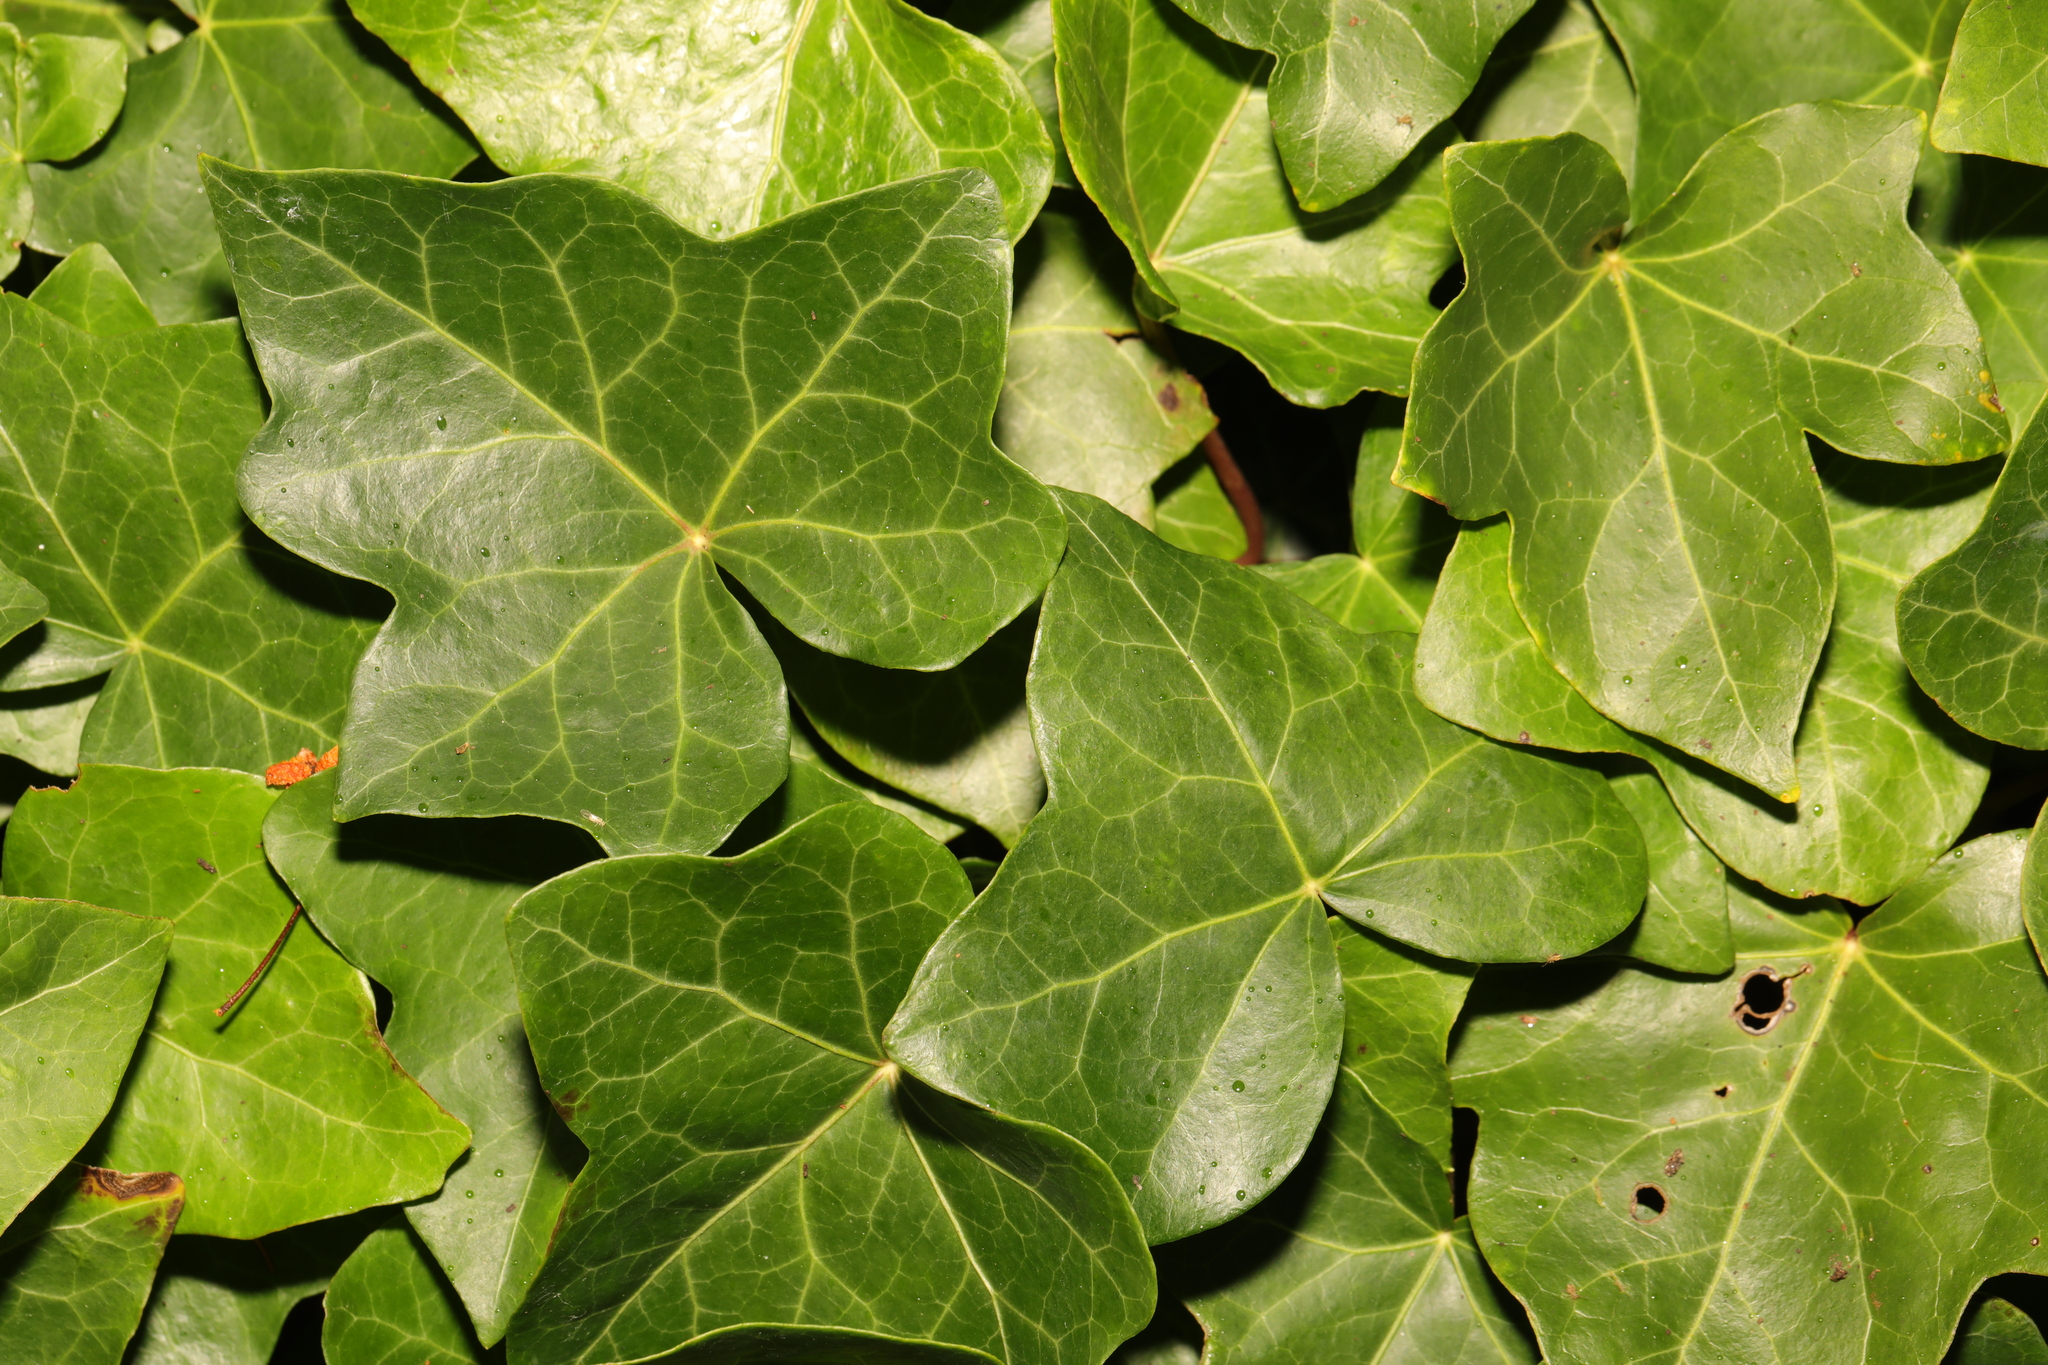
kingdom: Plantae
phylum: Tracheophyta
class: Magnoliopsida
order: Apiales
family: Araliaceae
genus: Hedera
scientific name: Hedera helix
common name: Ivy
